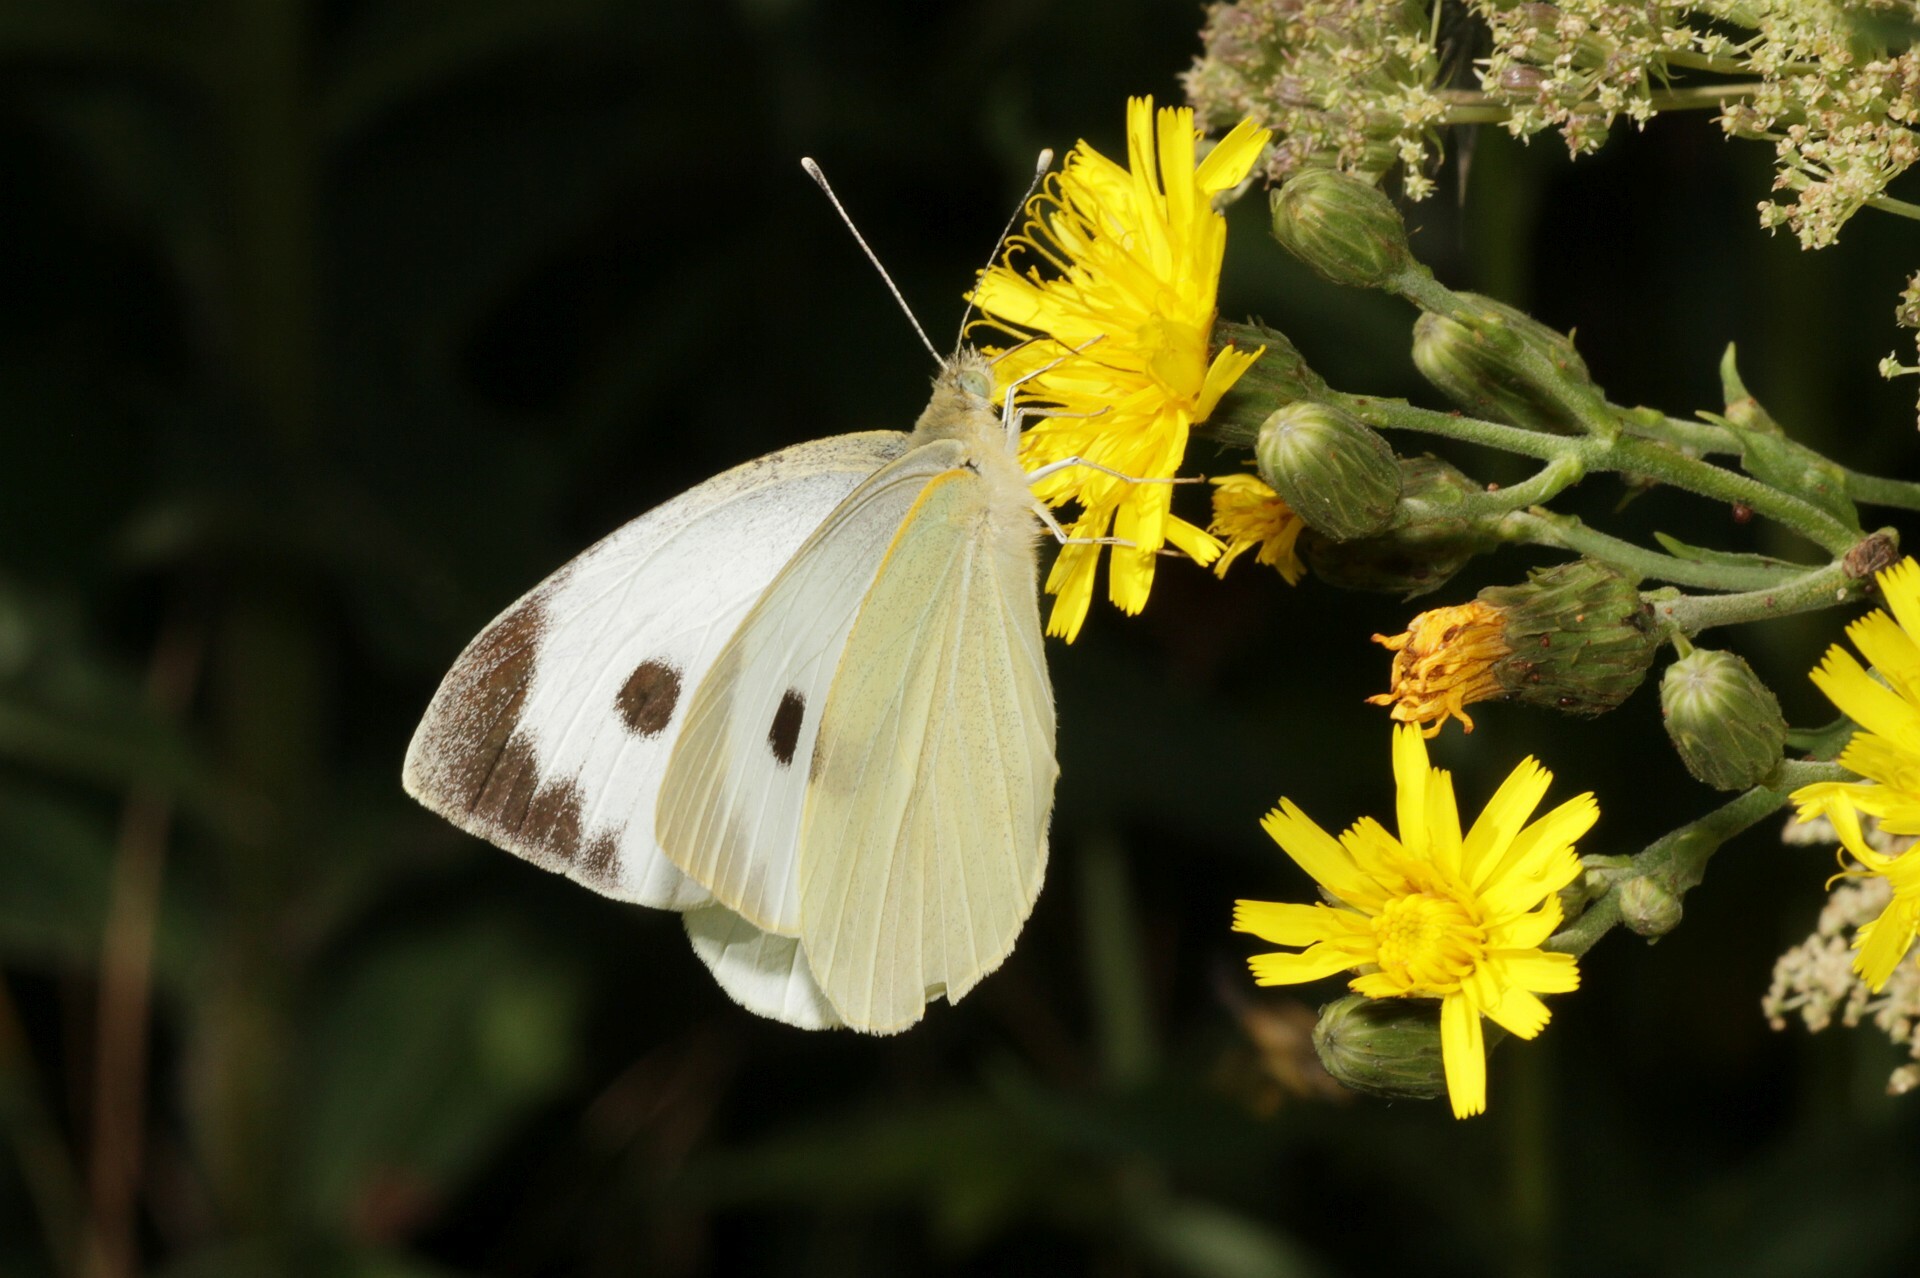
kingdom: Animalia
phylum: Arthropoda
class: Insecta
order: Lepidoptera
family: Pieridae
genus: Pieris
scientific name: Pieris brassicae
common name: Large white
